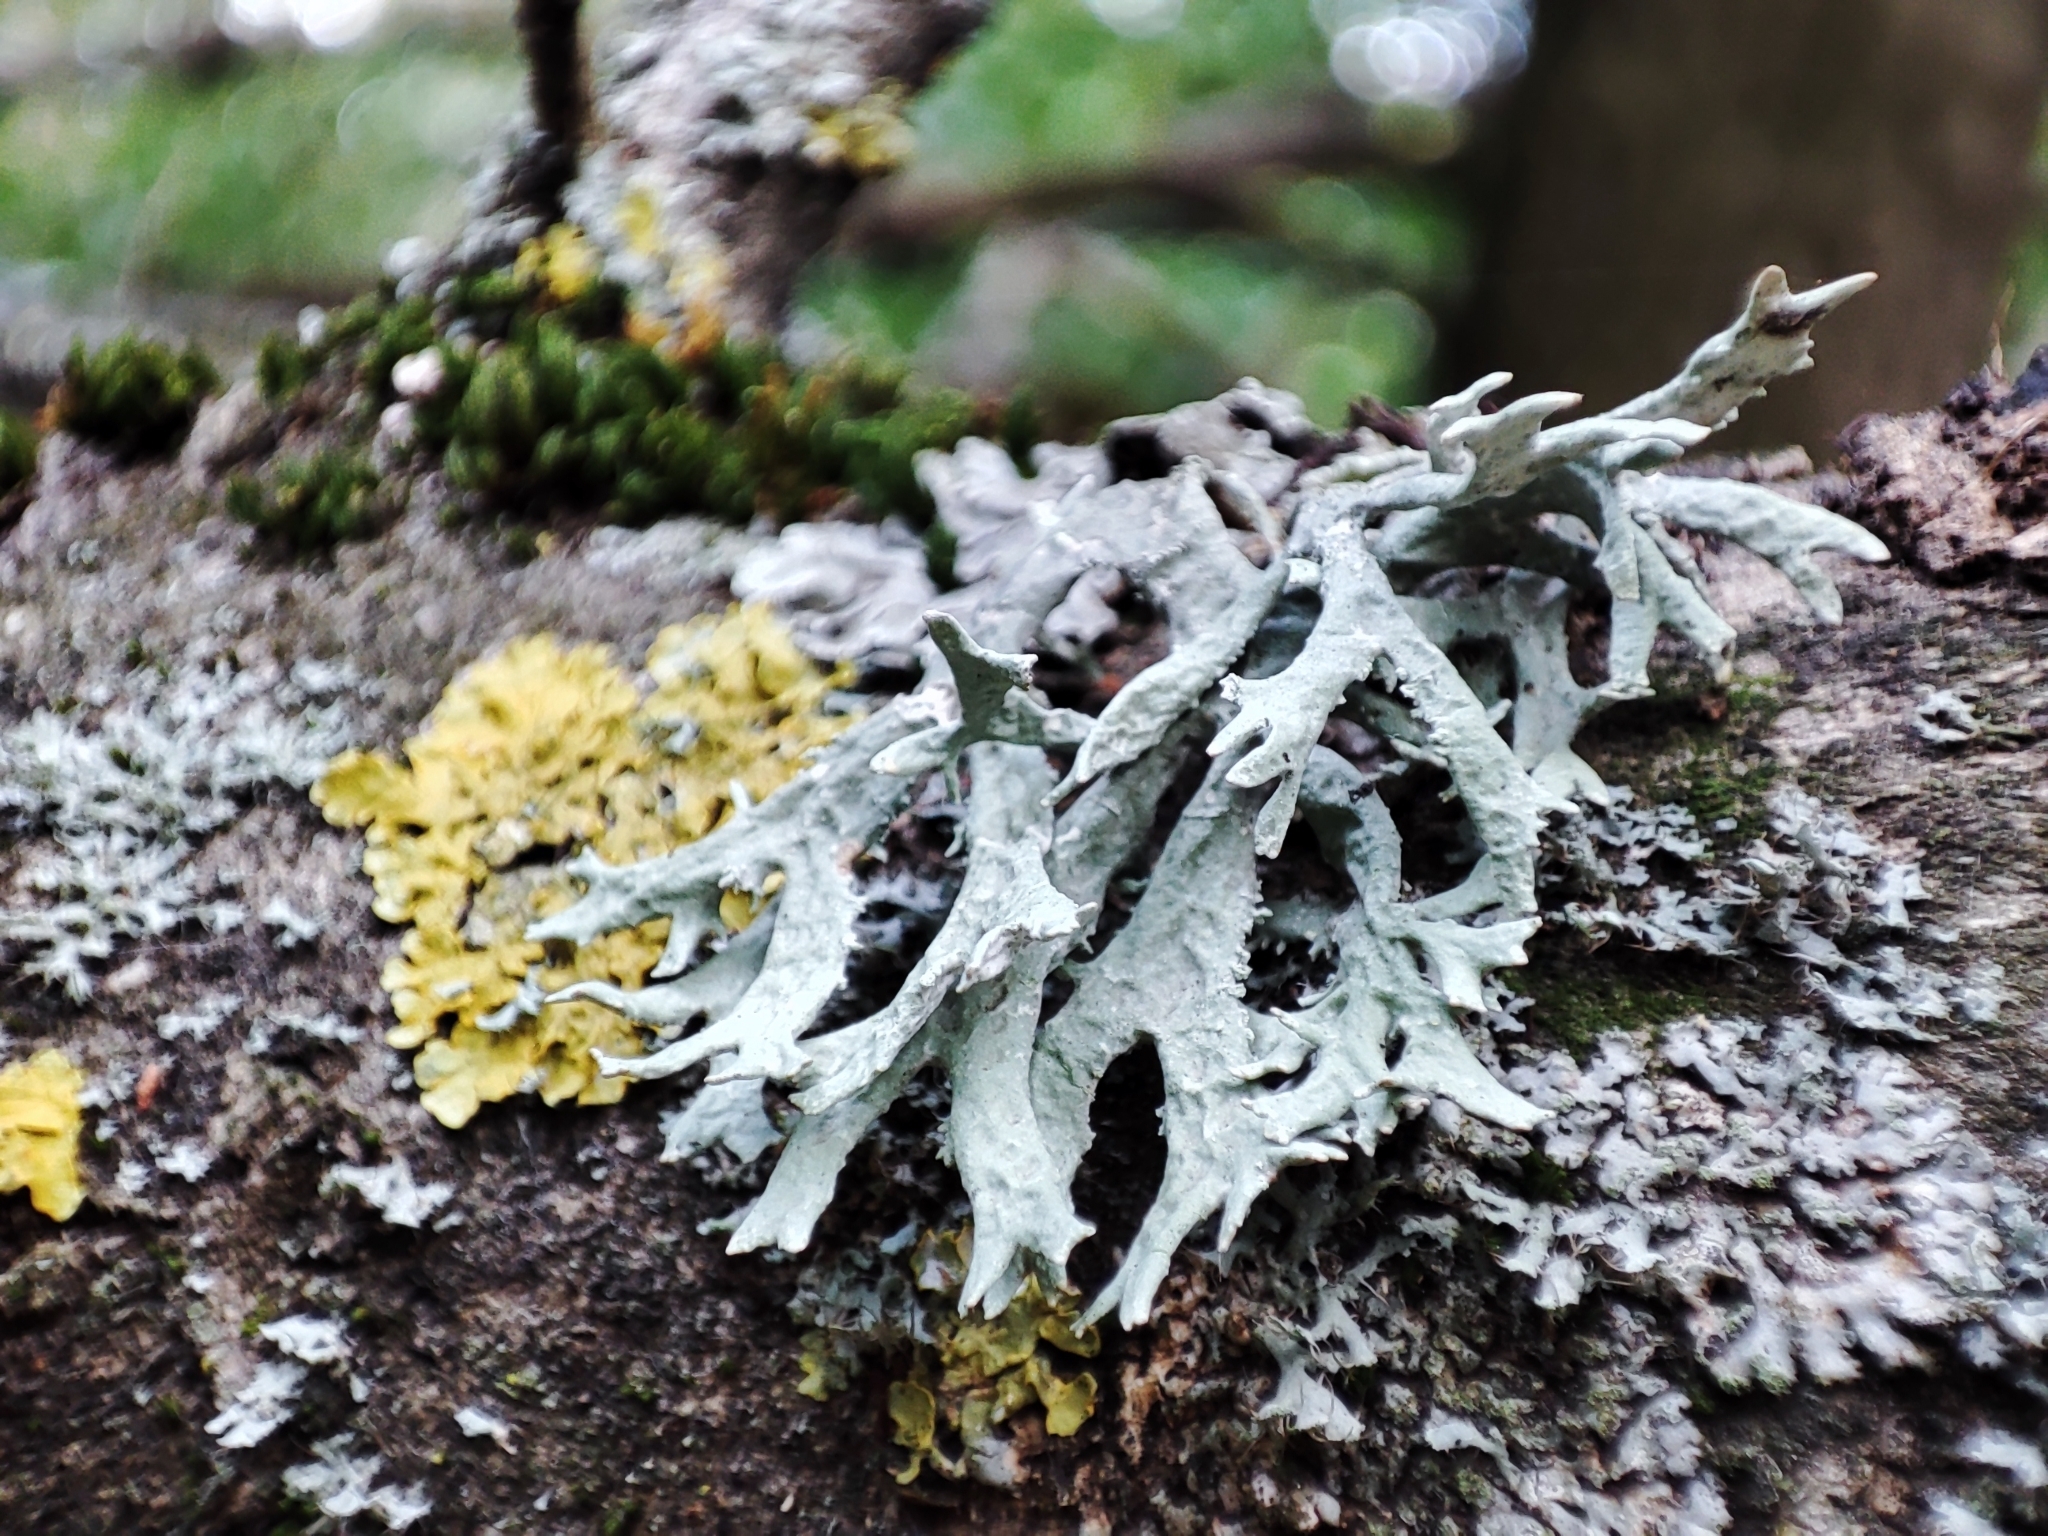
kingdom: Fungi
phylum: Ascomycota
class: Lecanoromycetes
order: Lecanorales
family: Parmeliaceae
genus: Evernia
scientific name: Evernia prunastri
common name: Oak moss
